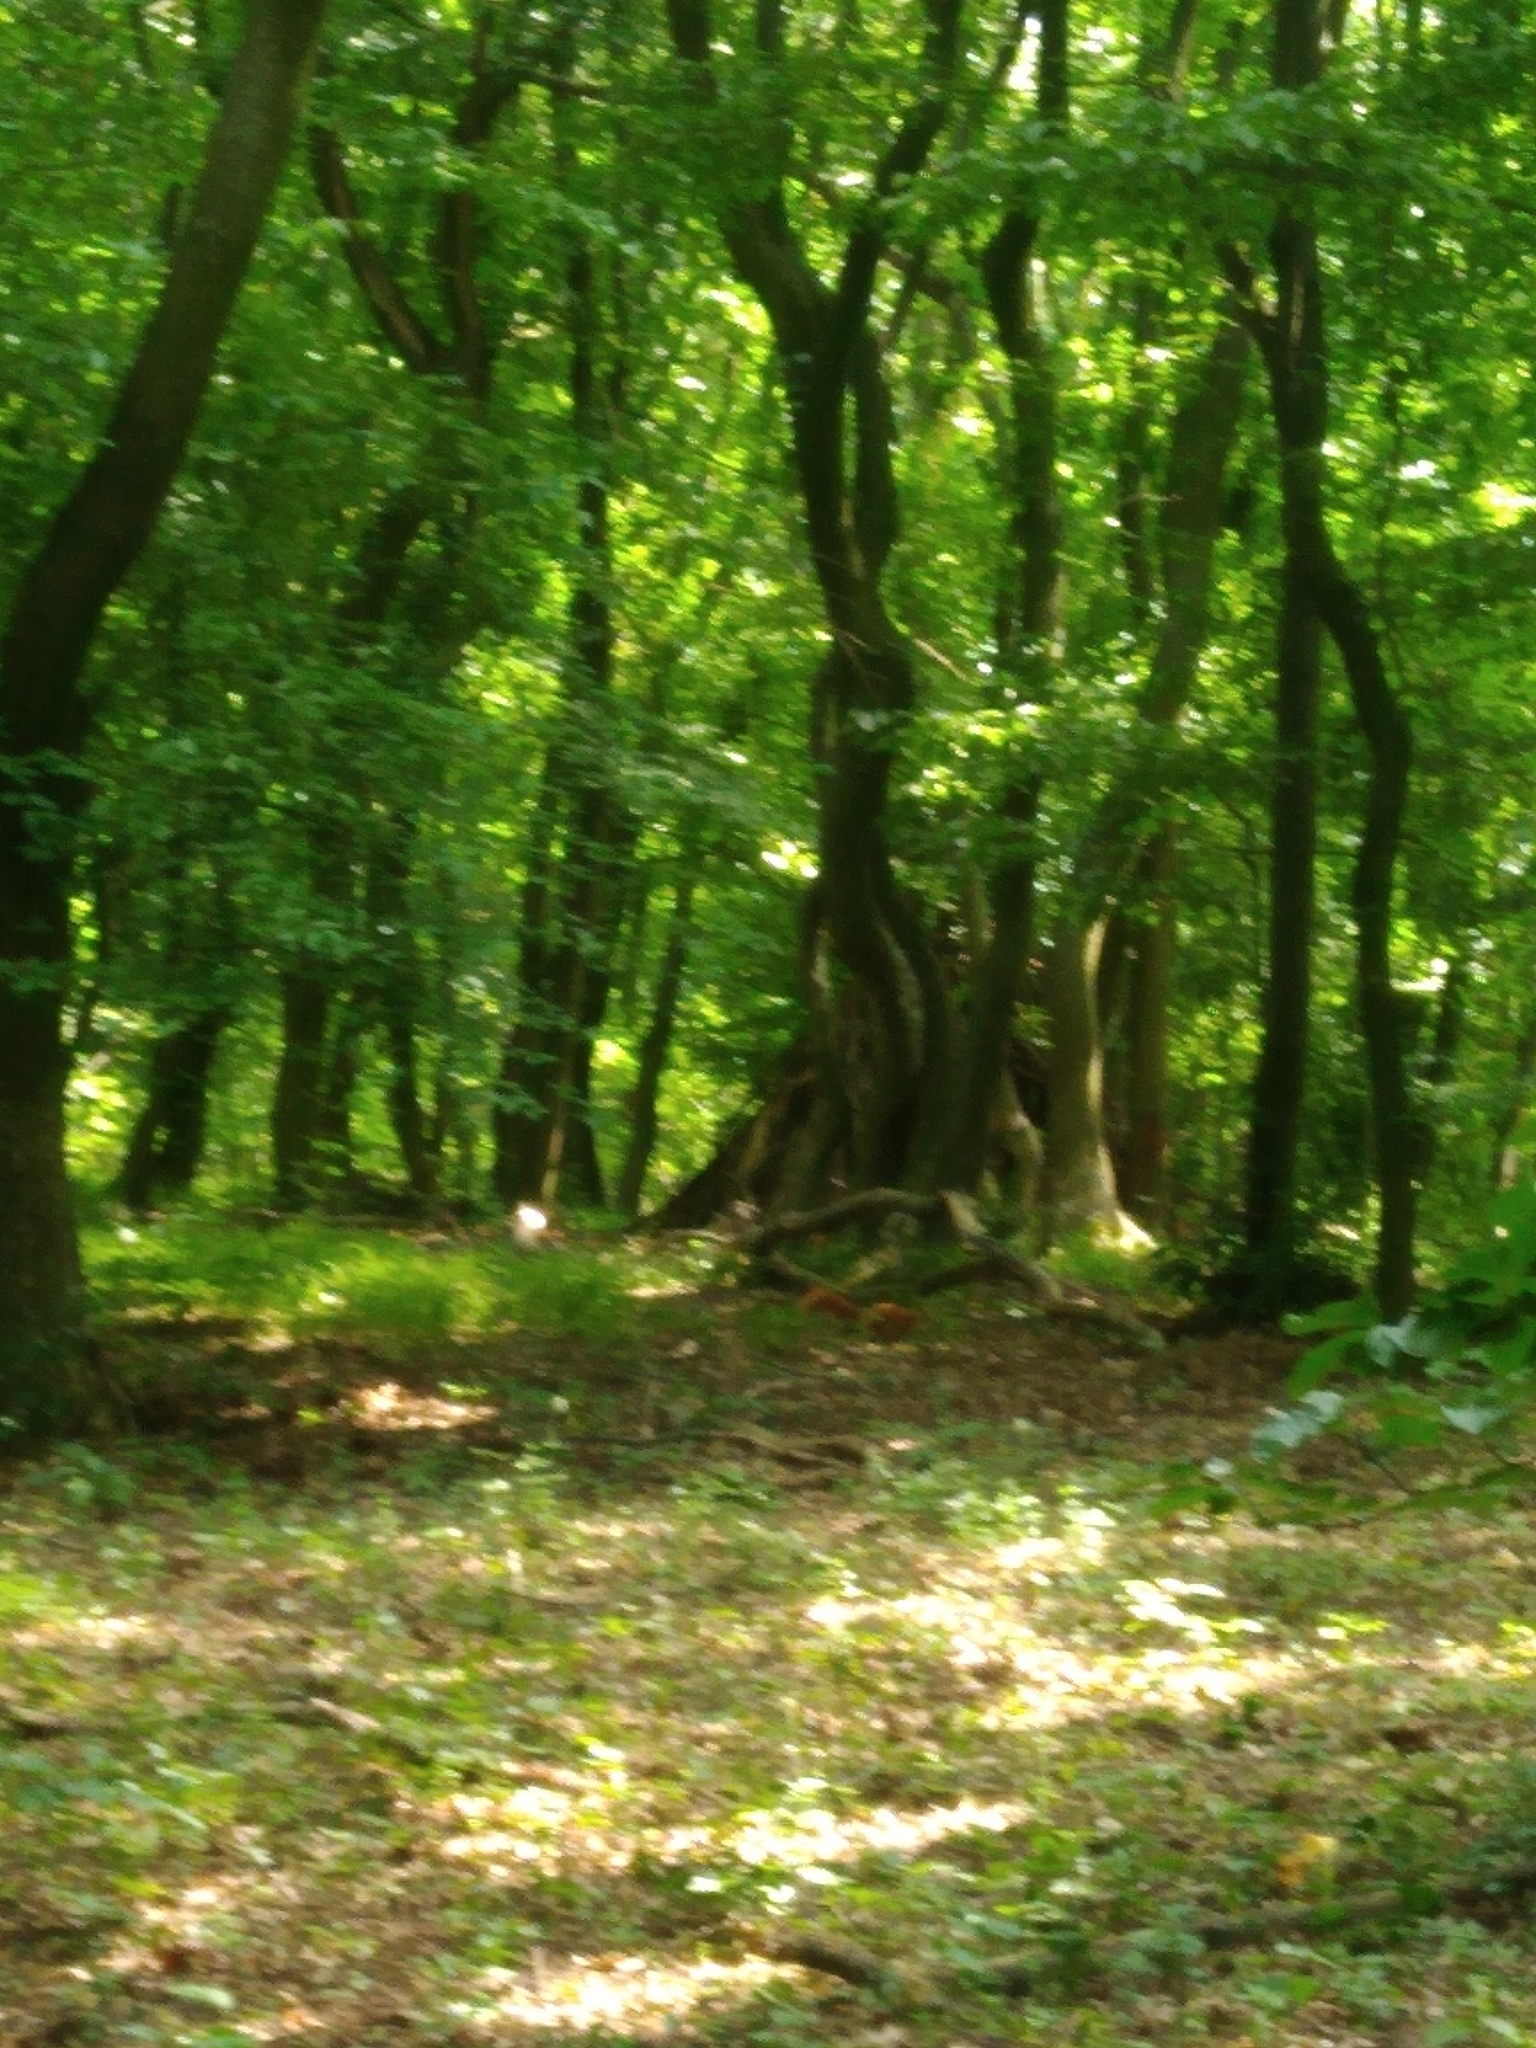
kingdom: Animalia
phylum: Chordata
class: Mammalia
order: Rodentia
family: Sciuridae
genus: Sciurus
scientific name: Sciurus vulgaris
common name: Eurasian red squirrel
